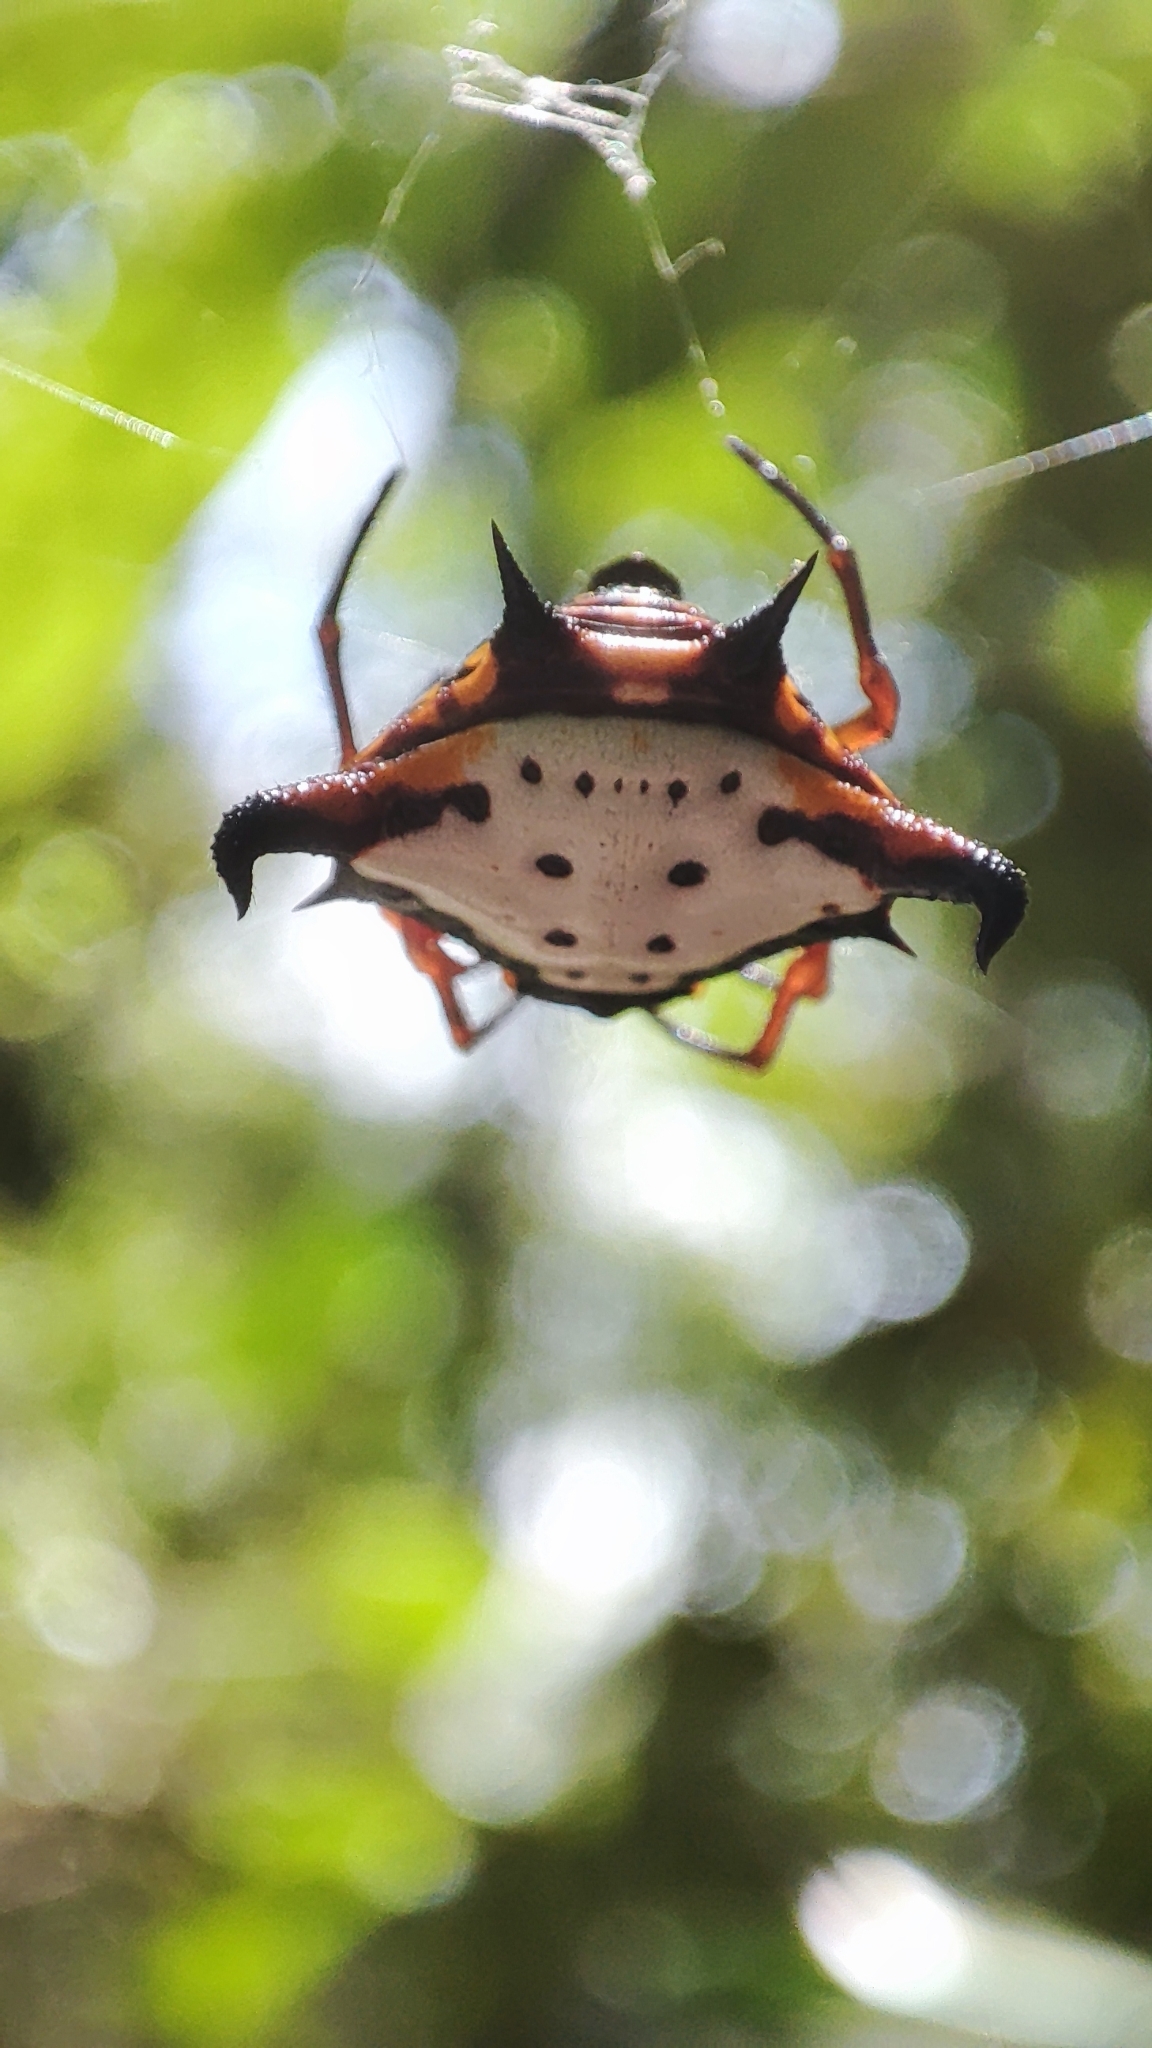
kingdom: Animalia
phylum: Arthropoda
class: Arachnida
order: Araneae
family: Araneidae
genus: Gasteracantha
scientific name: Gasteracantha crucigera
